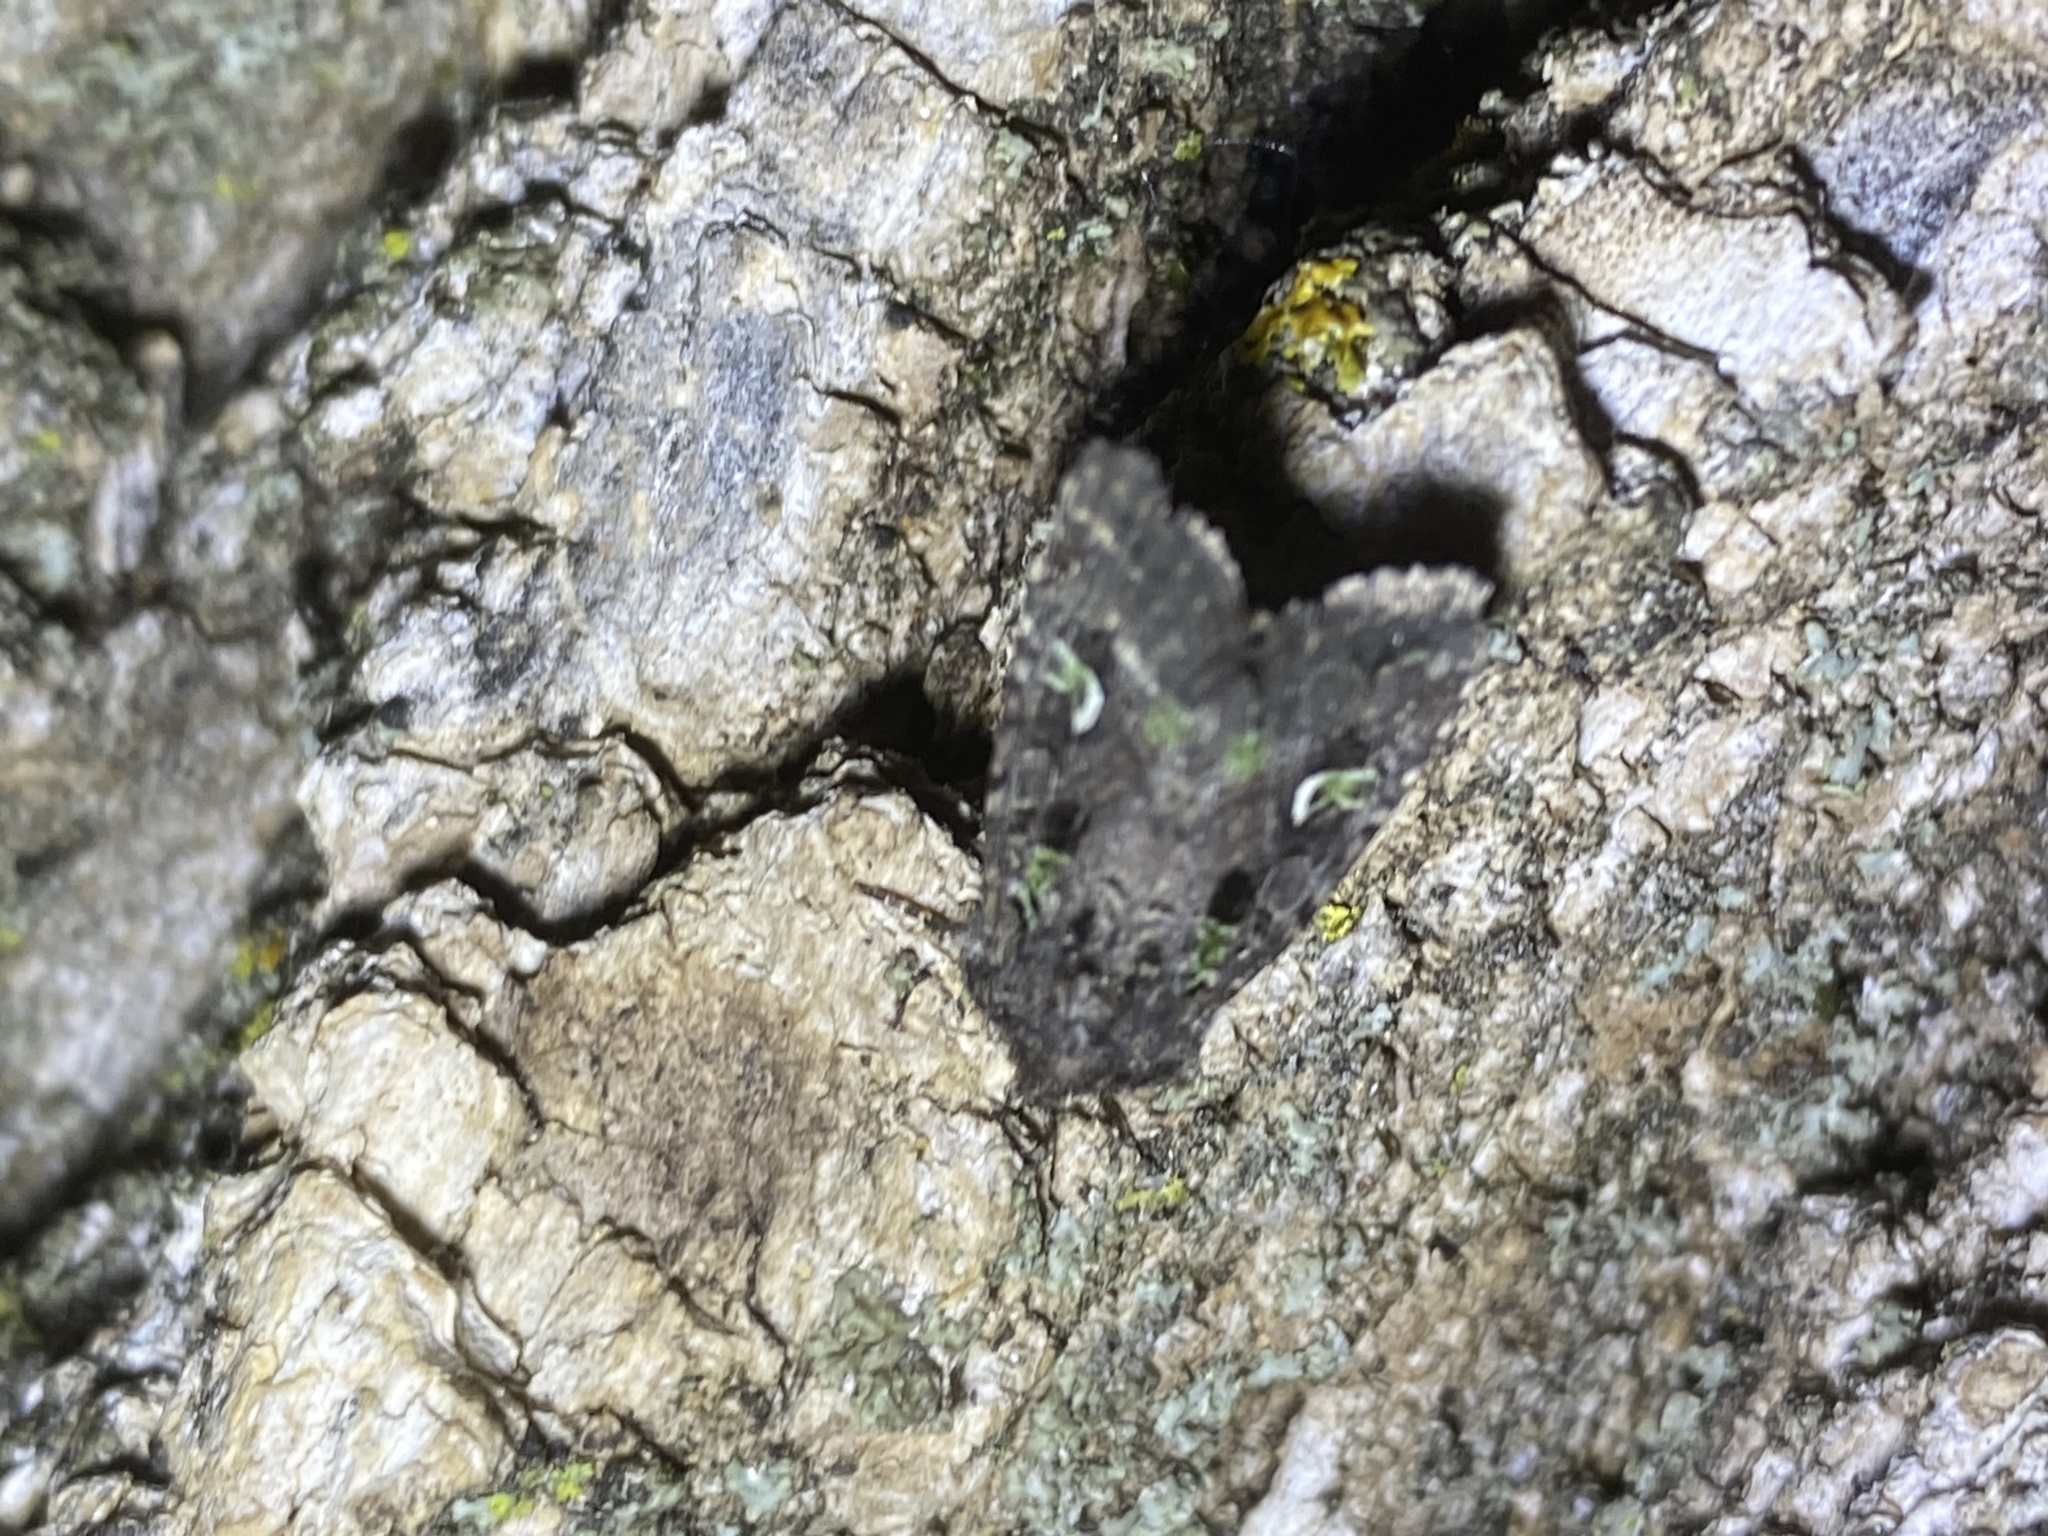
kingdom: Animalia
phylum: Arthropoda
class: Insecta
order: Lepidoptera
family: Noctuidae
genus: Lacinipolia
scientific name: Lacinipolia renigera
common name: Kidney-spotted minor
